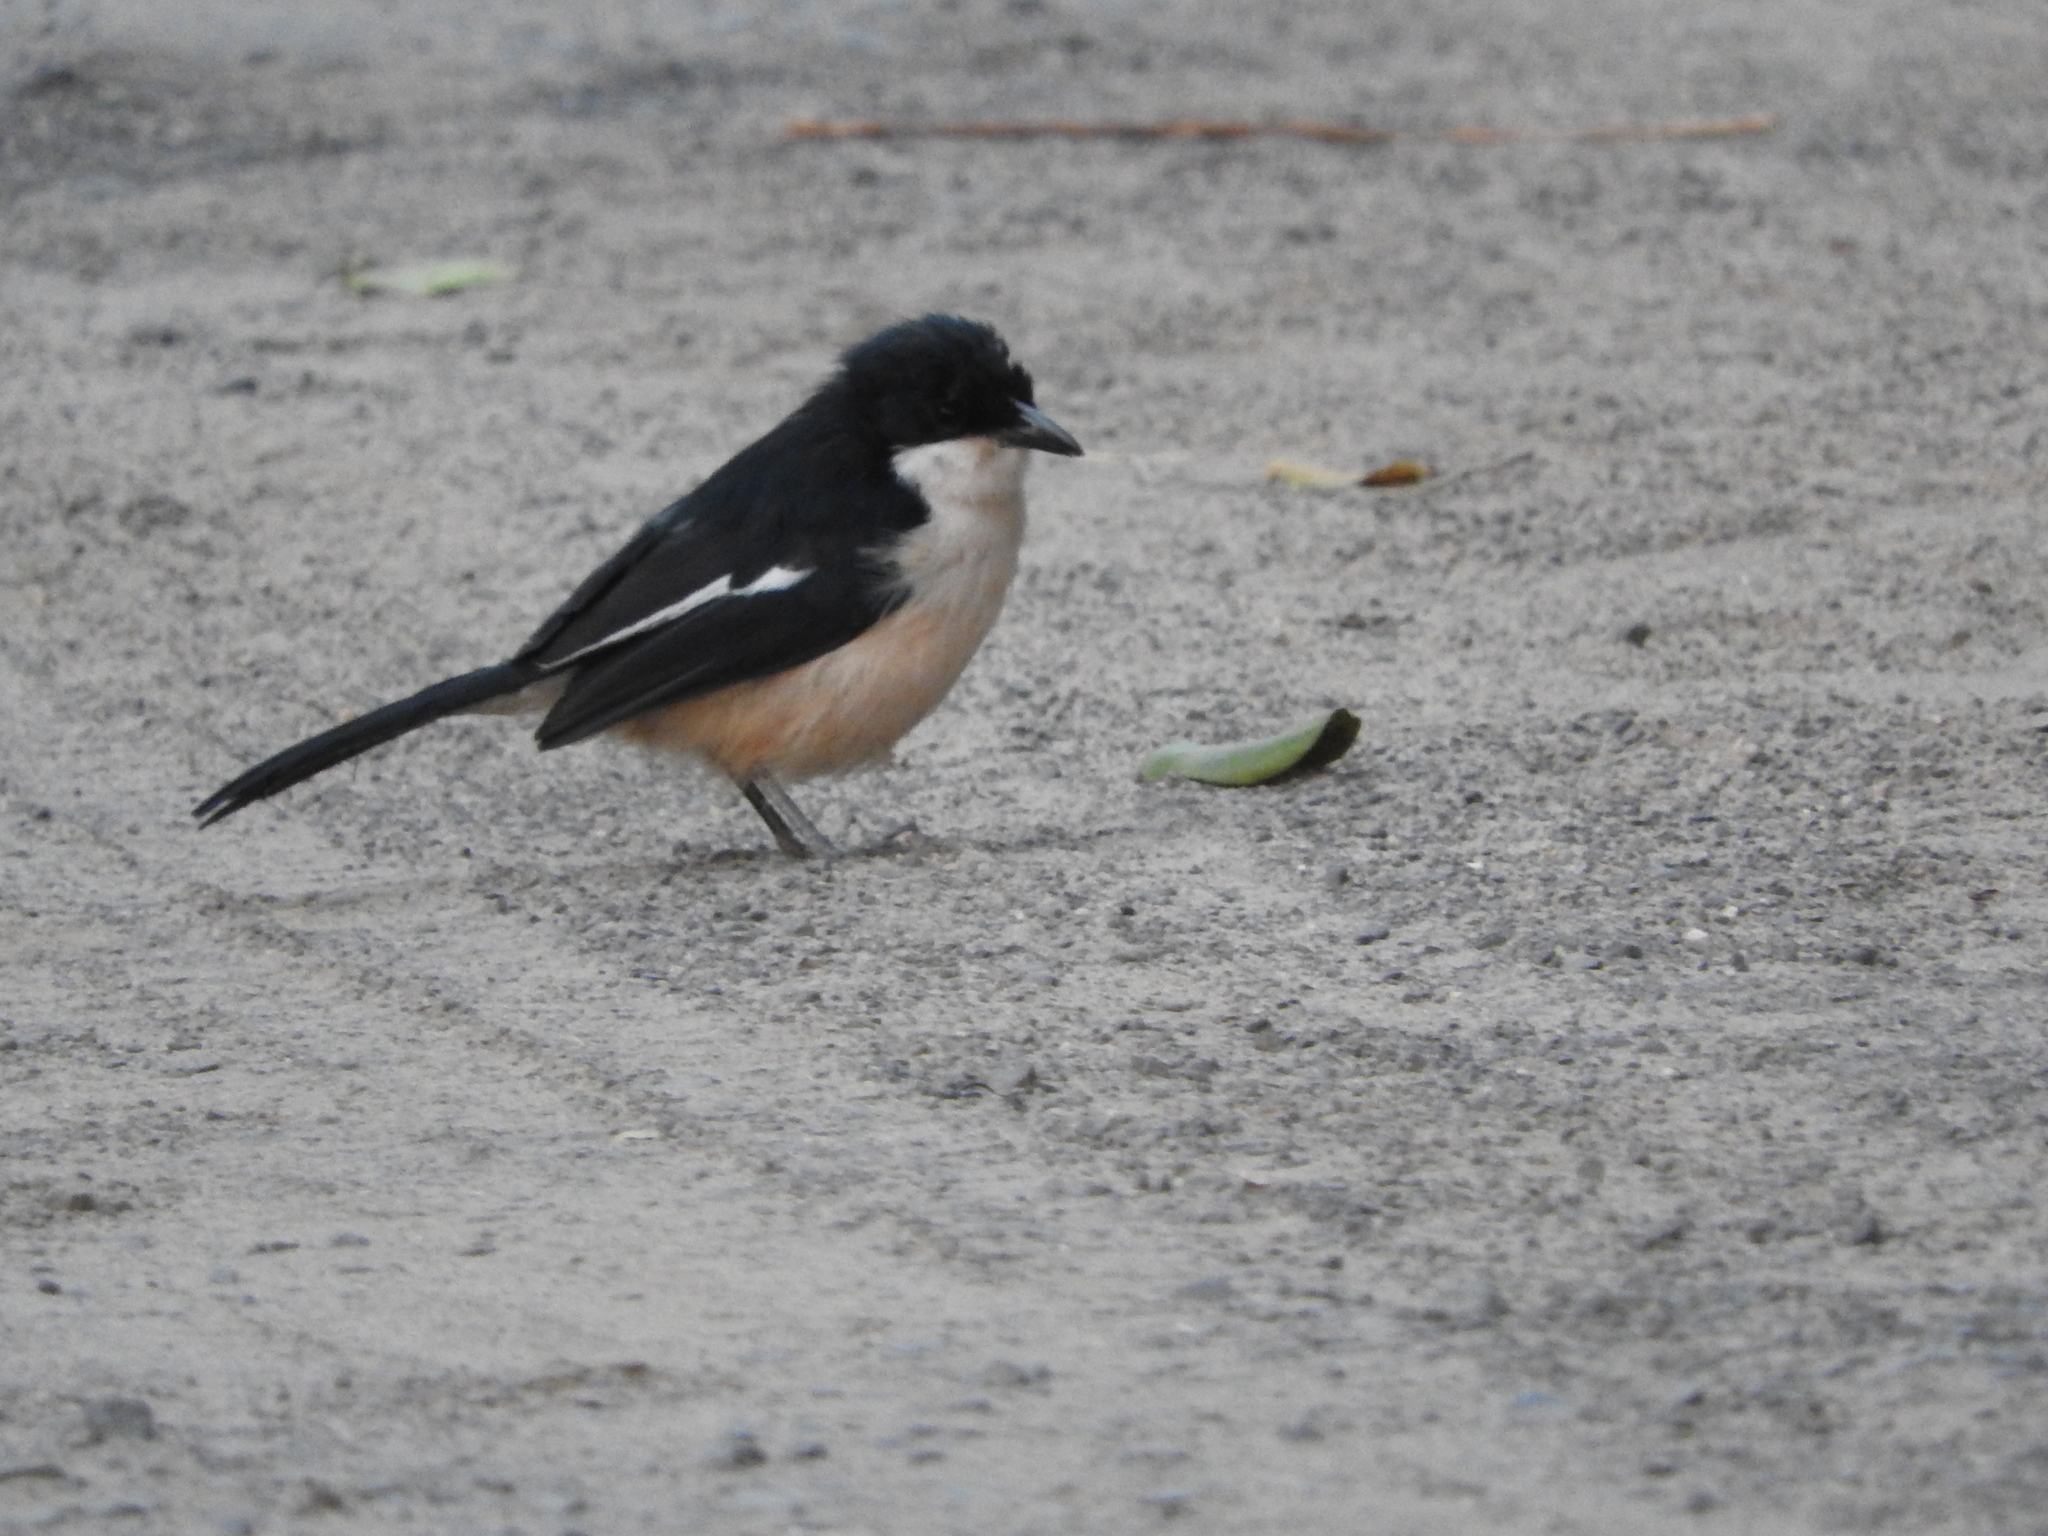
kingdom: Animalia
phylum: Chordata
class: Aves
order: Passeriformes
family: Malaconotidae
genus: Laniarius
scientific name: Laniarius major
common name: Tropical boubou
